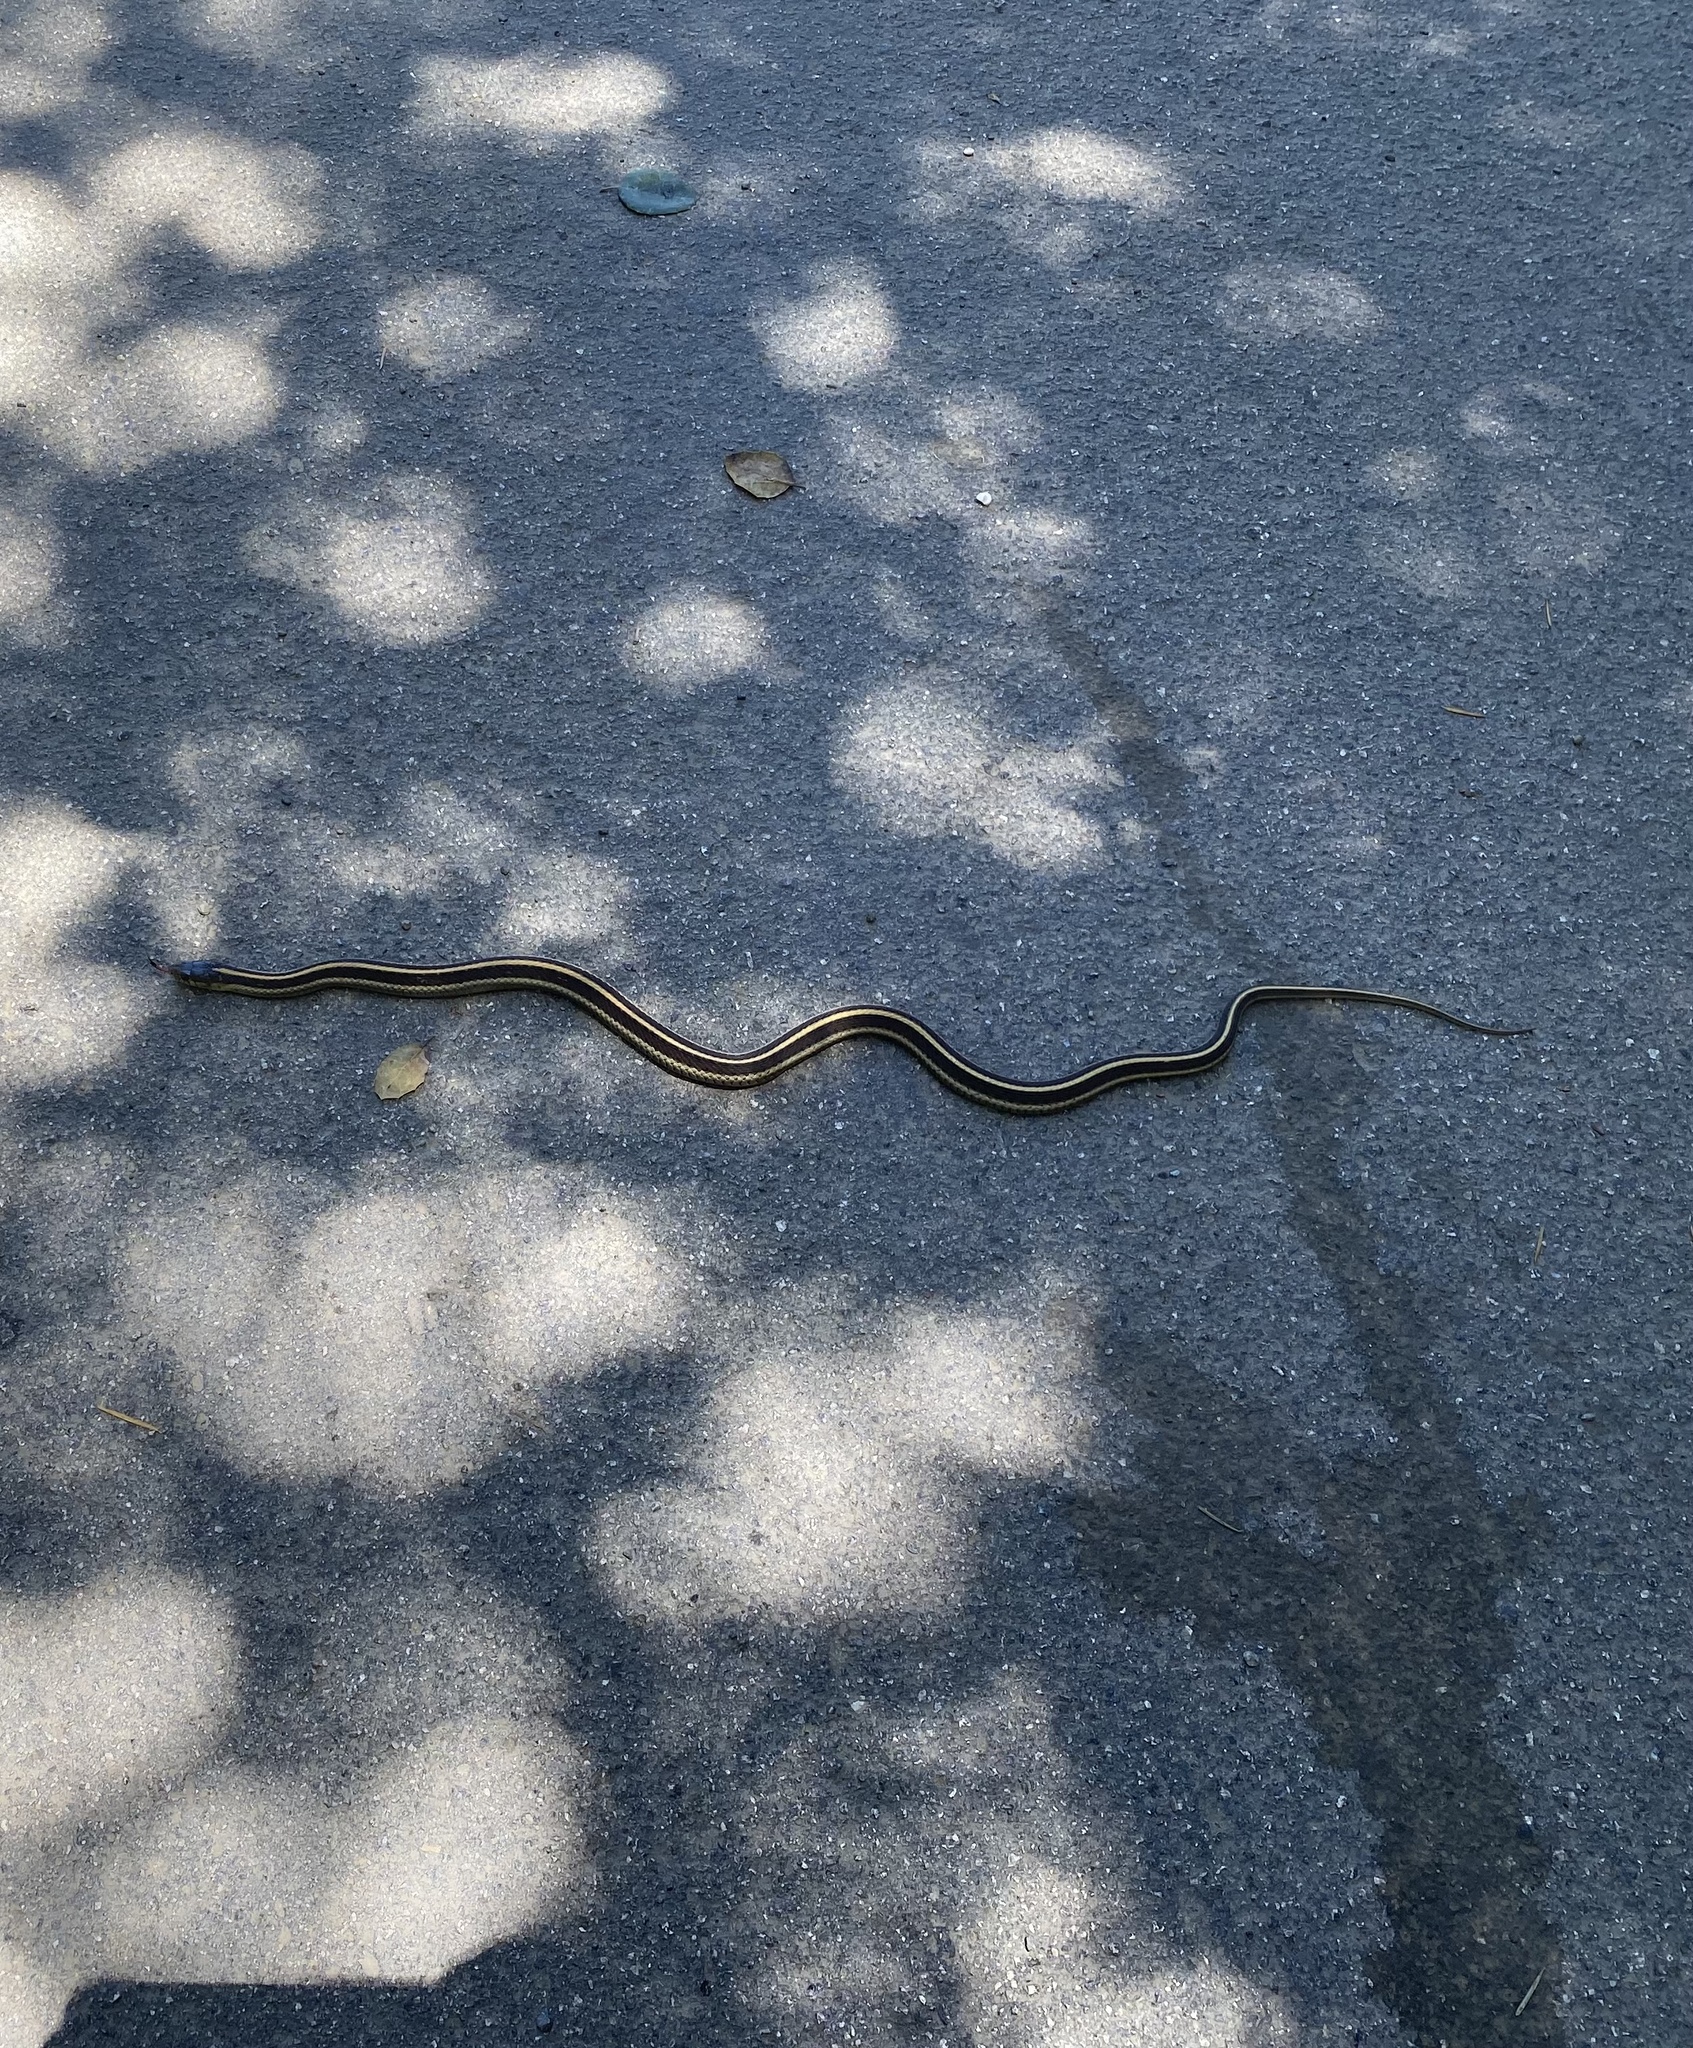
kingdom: Animalia
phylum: Chordata
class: Squamata
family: Colubridae
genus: Thamnophis
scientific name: Thamnophis elegans
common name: Western terrestrial garter snake
